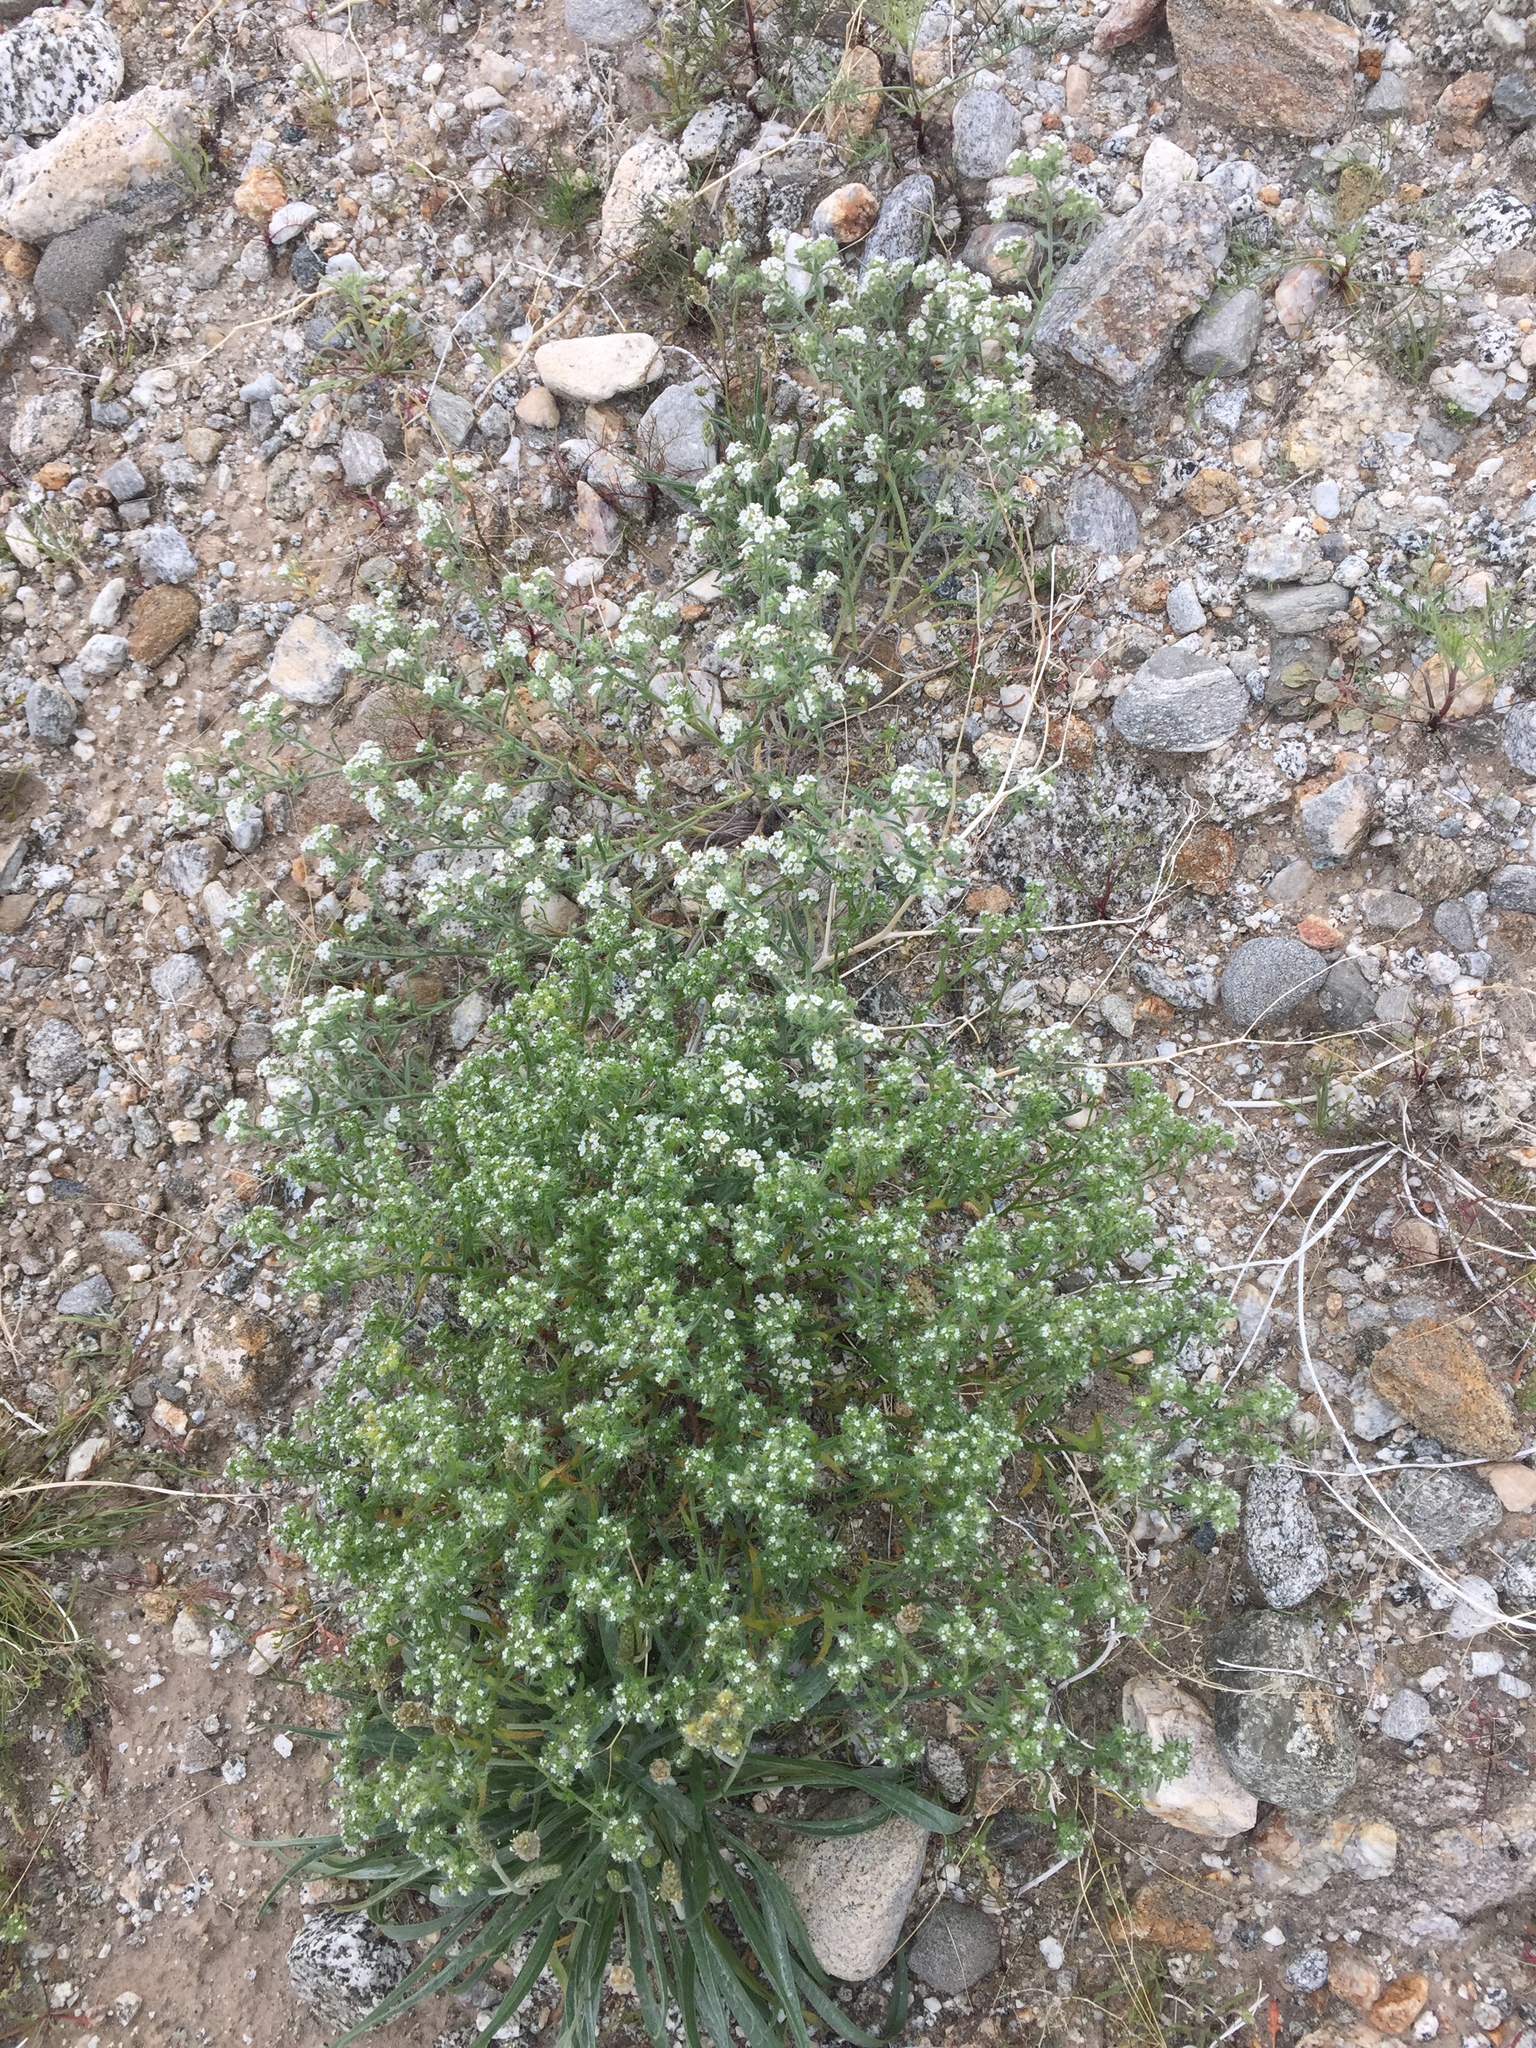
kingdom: Plantae
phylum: Tracheophyta
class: Magnoliopsida
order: Boraginales
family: Boraginaceae
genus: Cryptantha
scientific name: Cryptantha maritima
